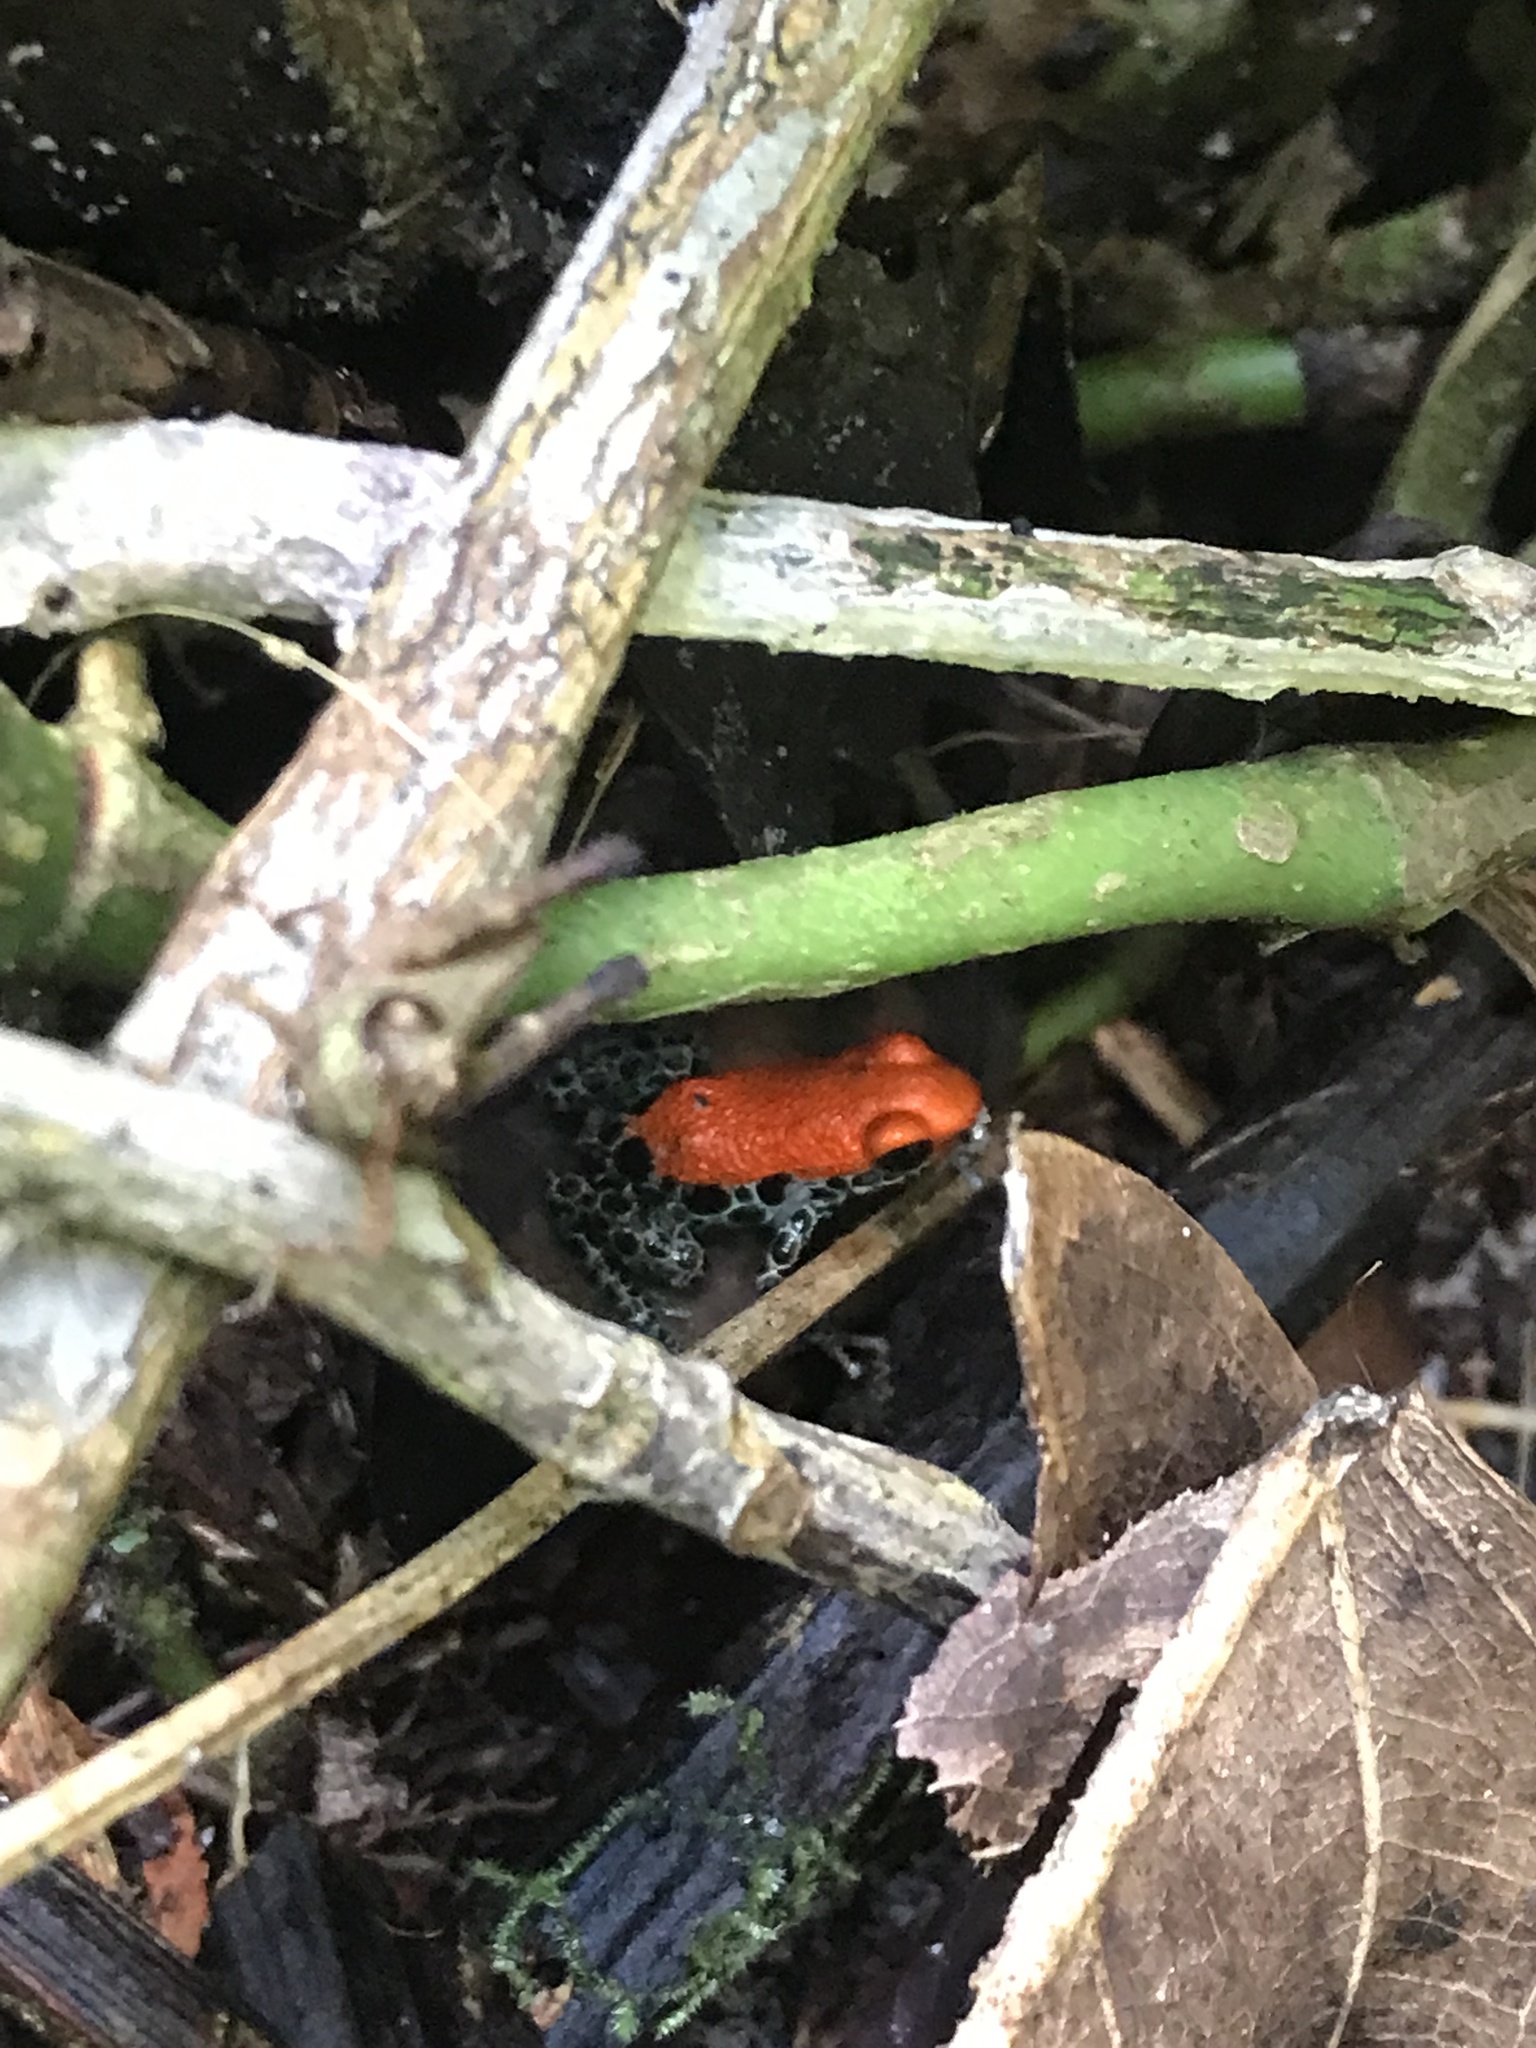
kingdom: Animalia
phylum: Chordata
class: Amphibia
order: Anura
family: Dendrobatidae
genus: Ranitomeya
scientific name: Ranitomeya reticulata
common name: Red-backed poison frog
